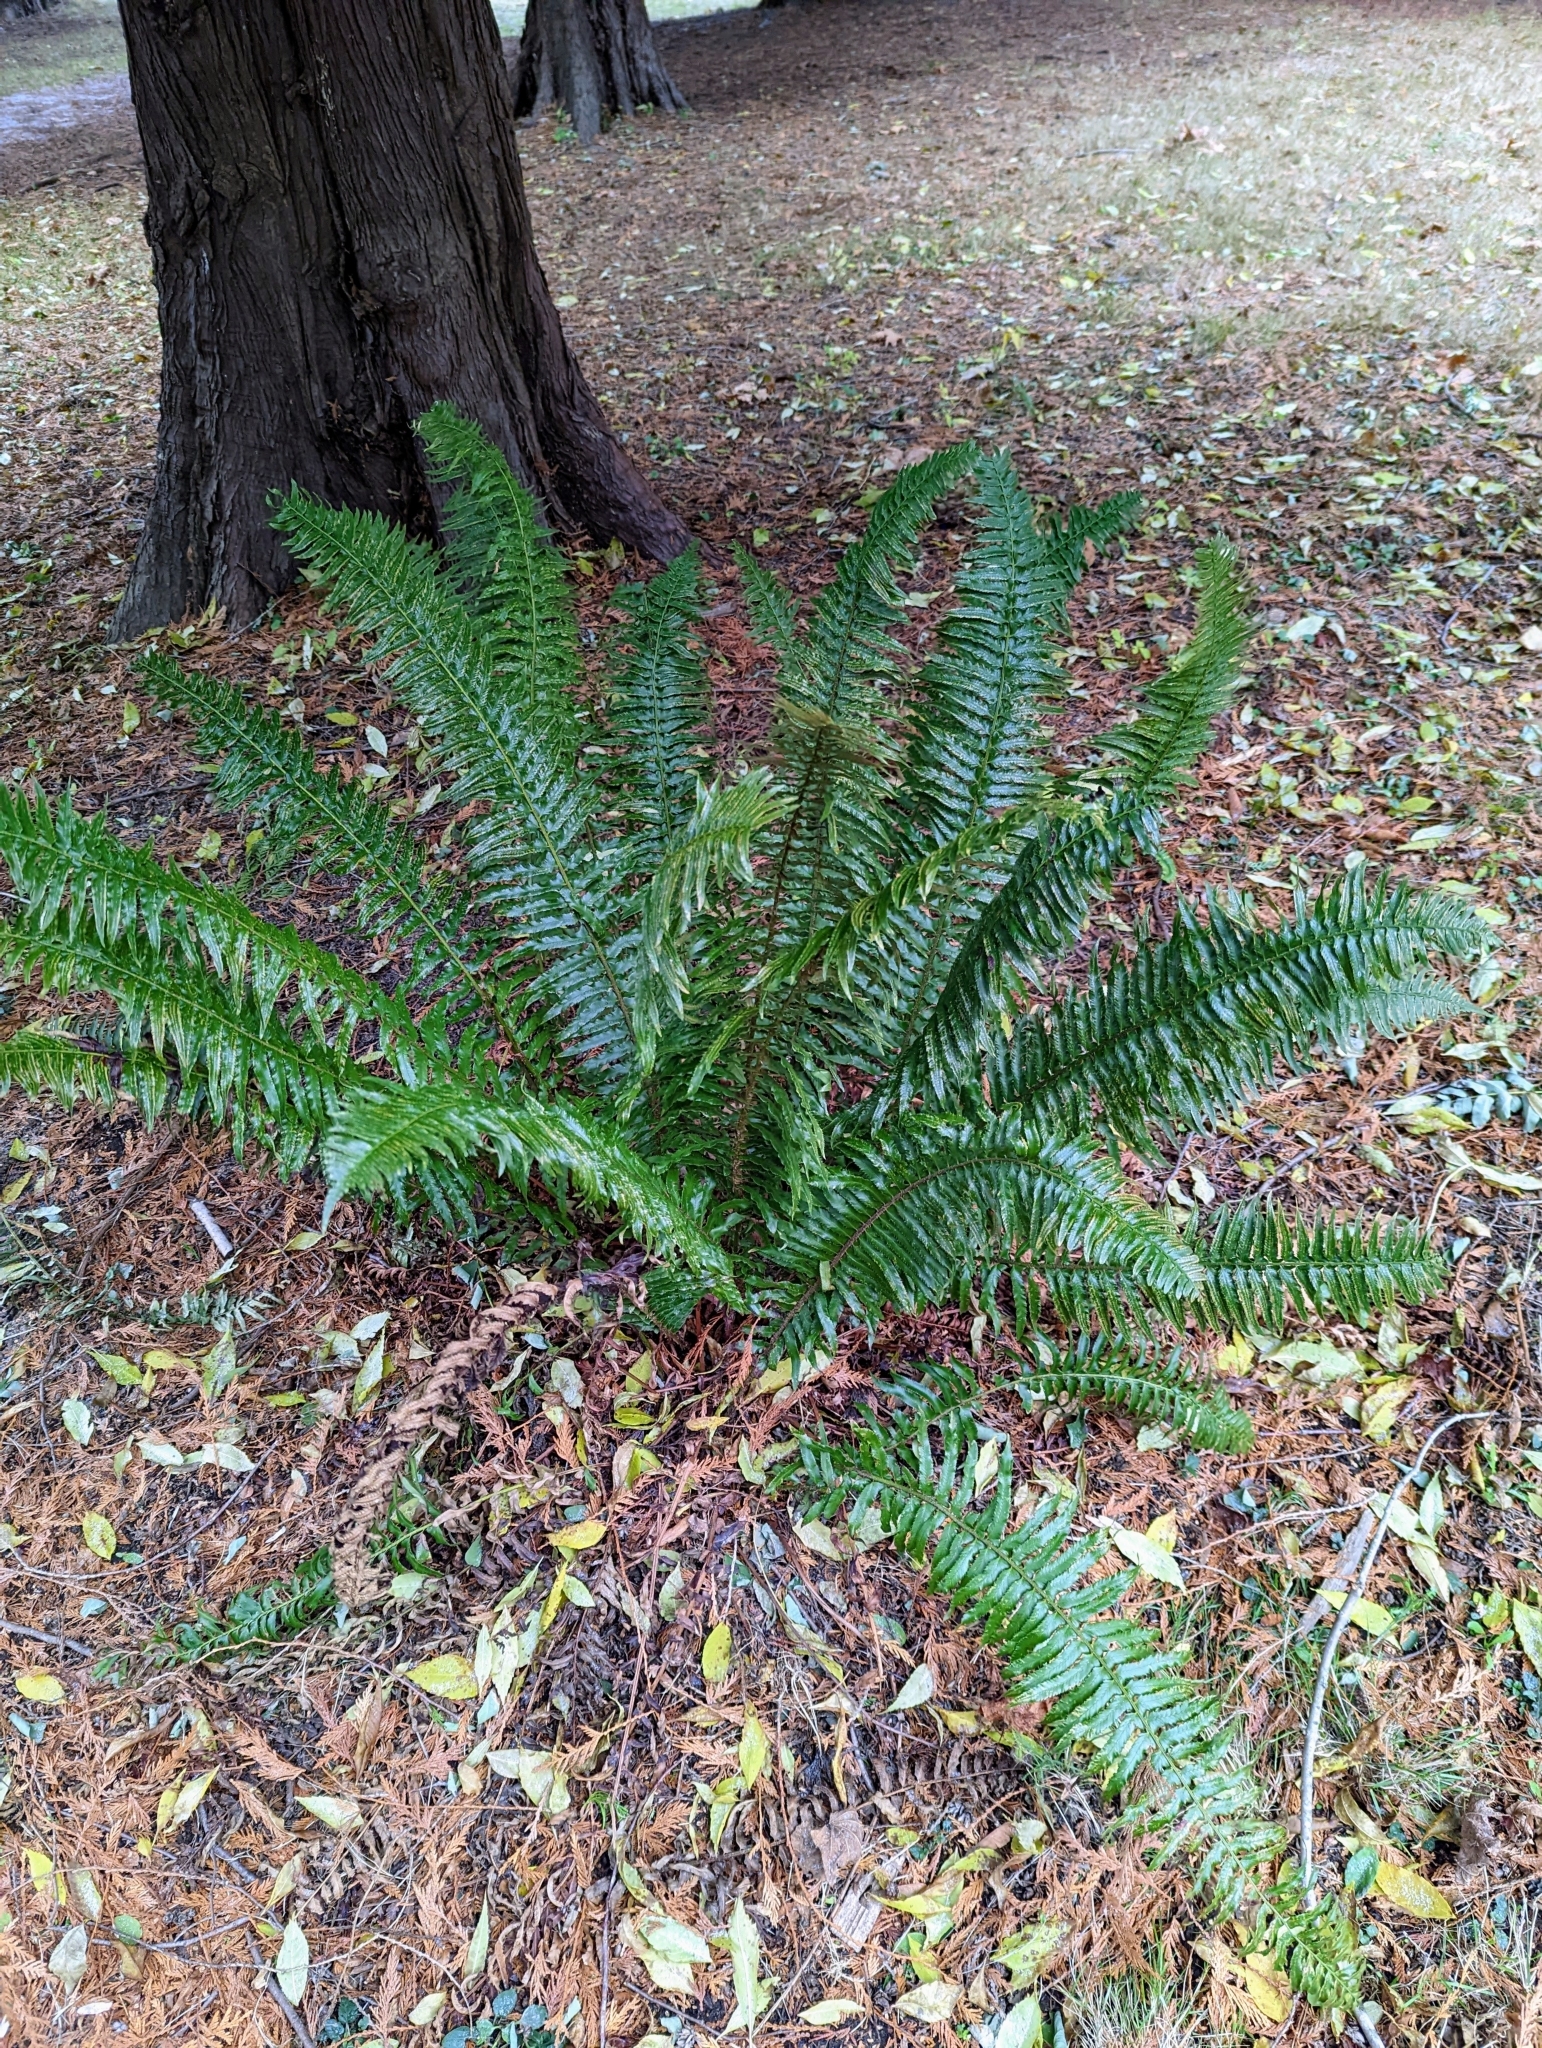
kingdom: Plantae
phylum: Tracheophyta
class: Polypodiopsida
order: Polypodiales
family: Dryopteridaceae
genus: Polystichum
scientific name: Polystichum munitum
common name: Western sword-fern
